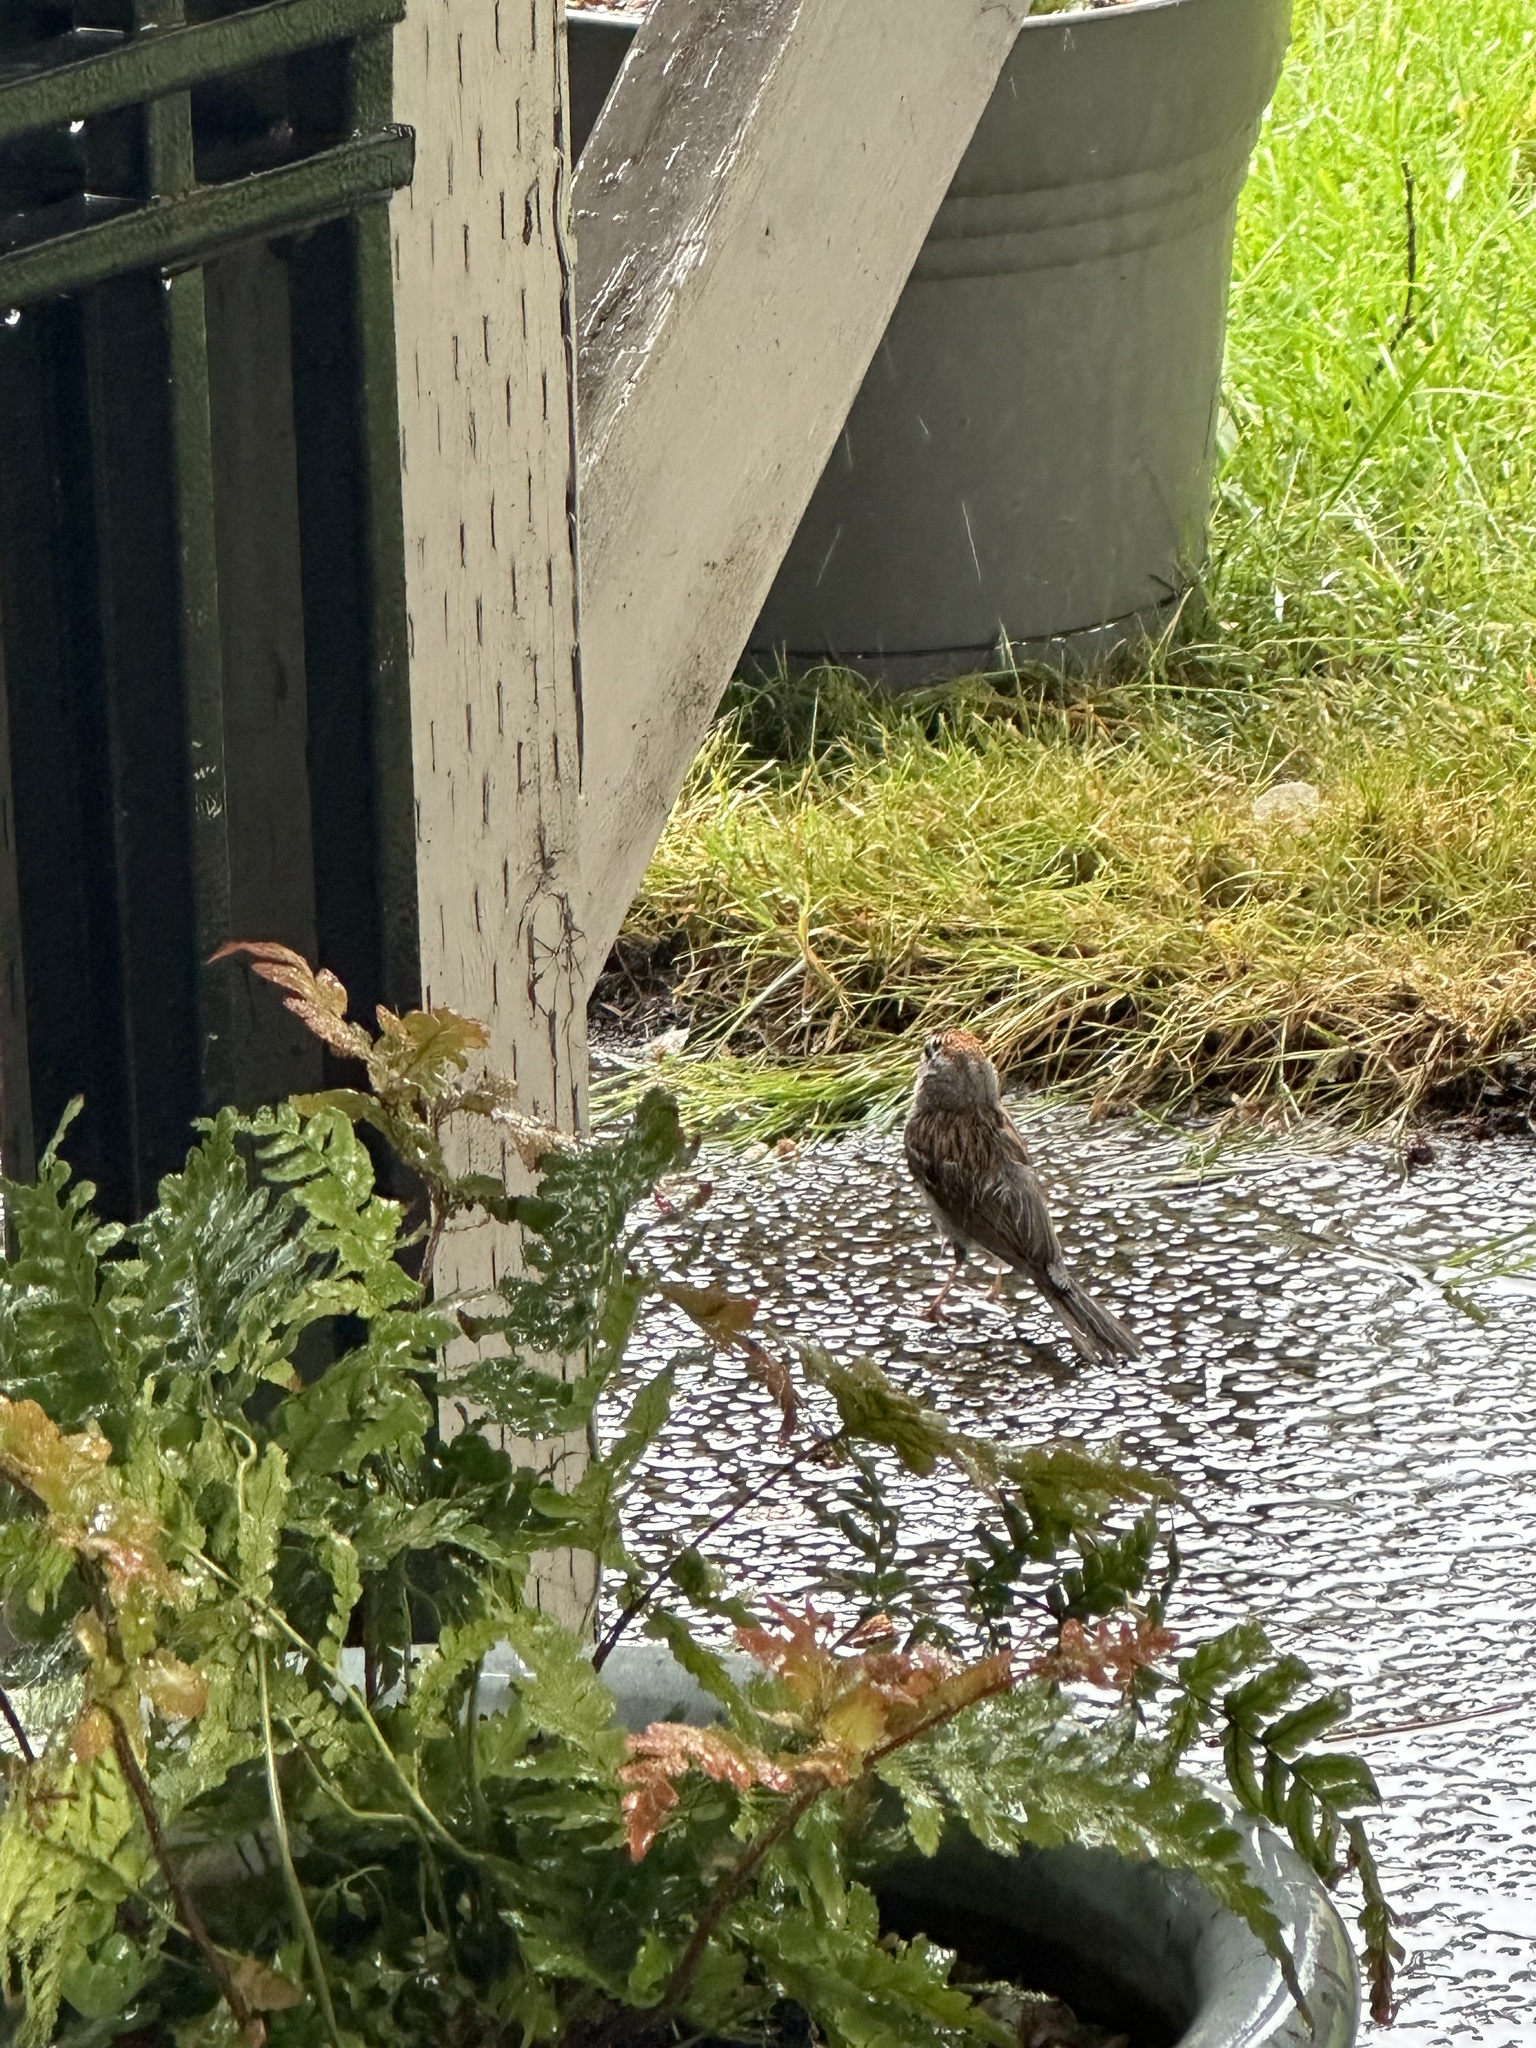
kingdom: Animalia
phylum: Chordata
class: Aves
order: Passeriformes
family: Passerellidae
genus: Spizella
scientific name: Spizella passerina
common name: Chipping sparrow
